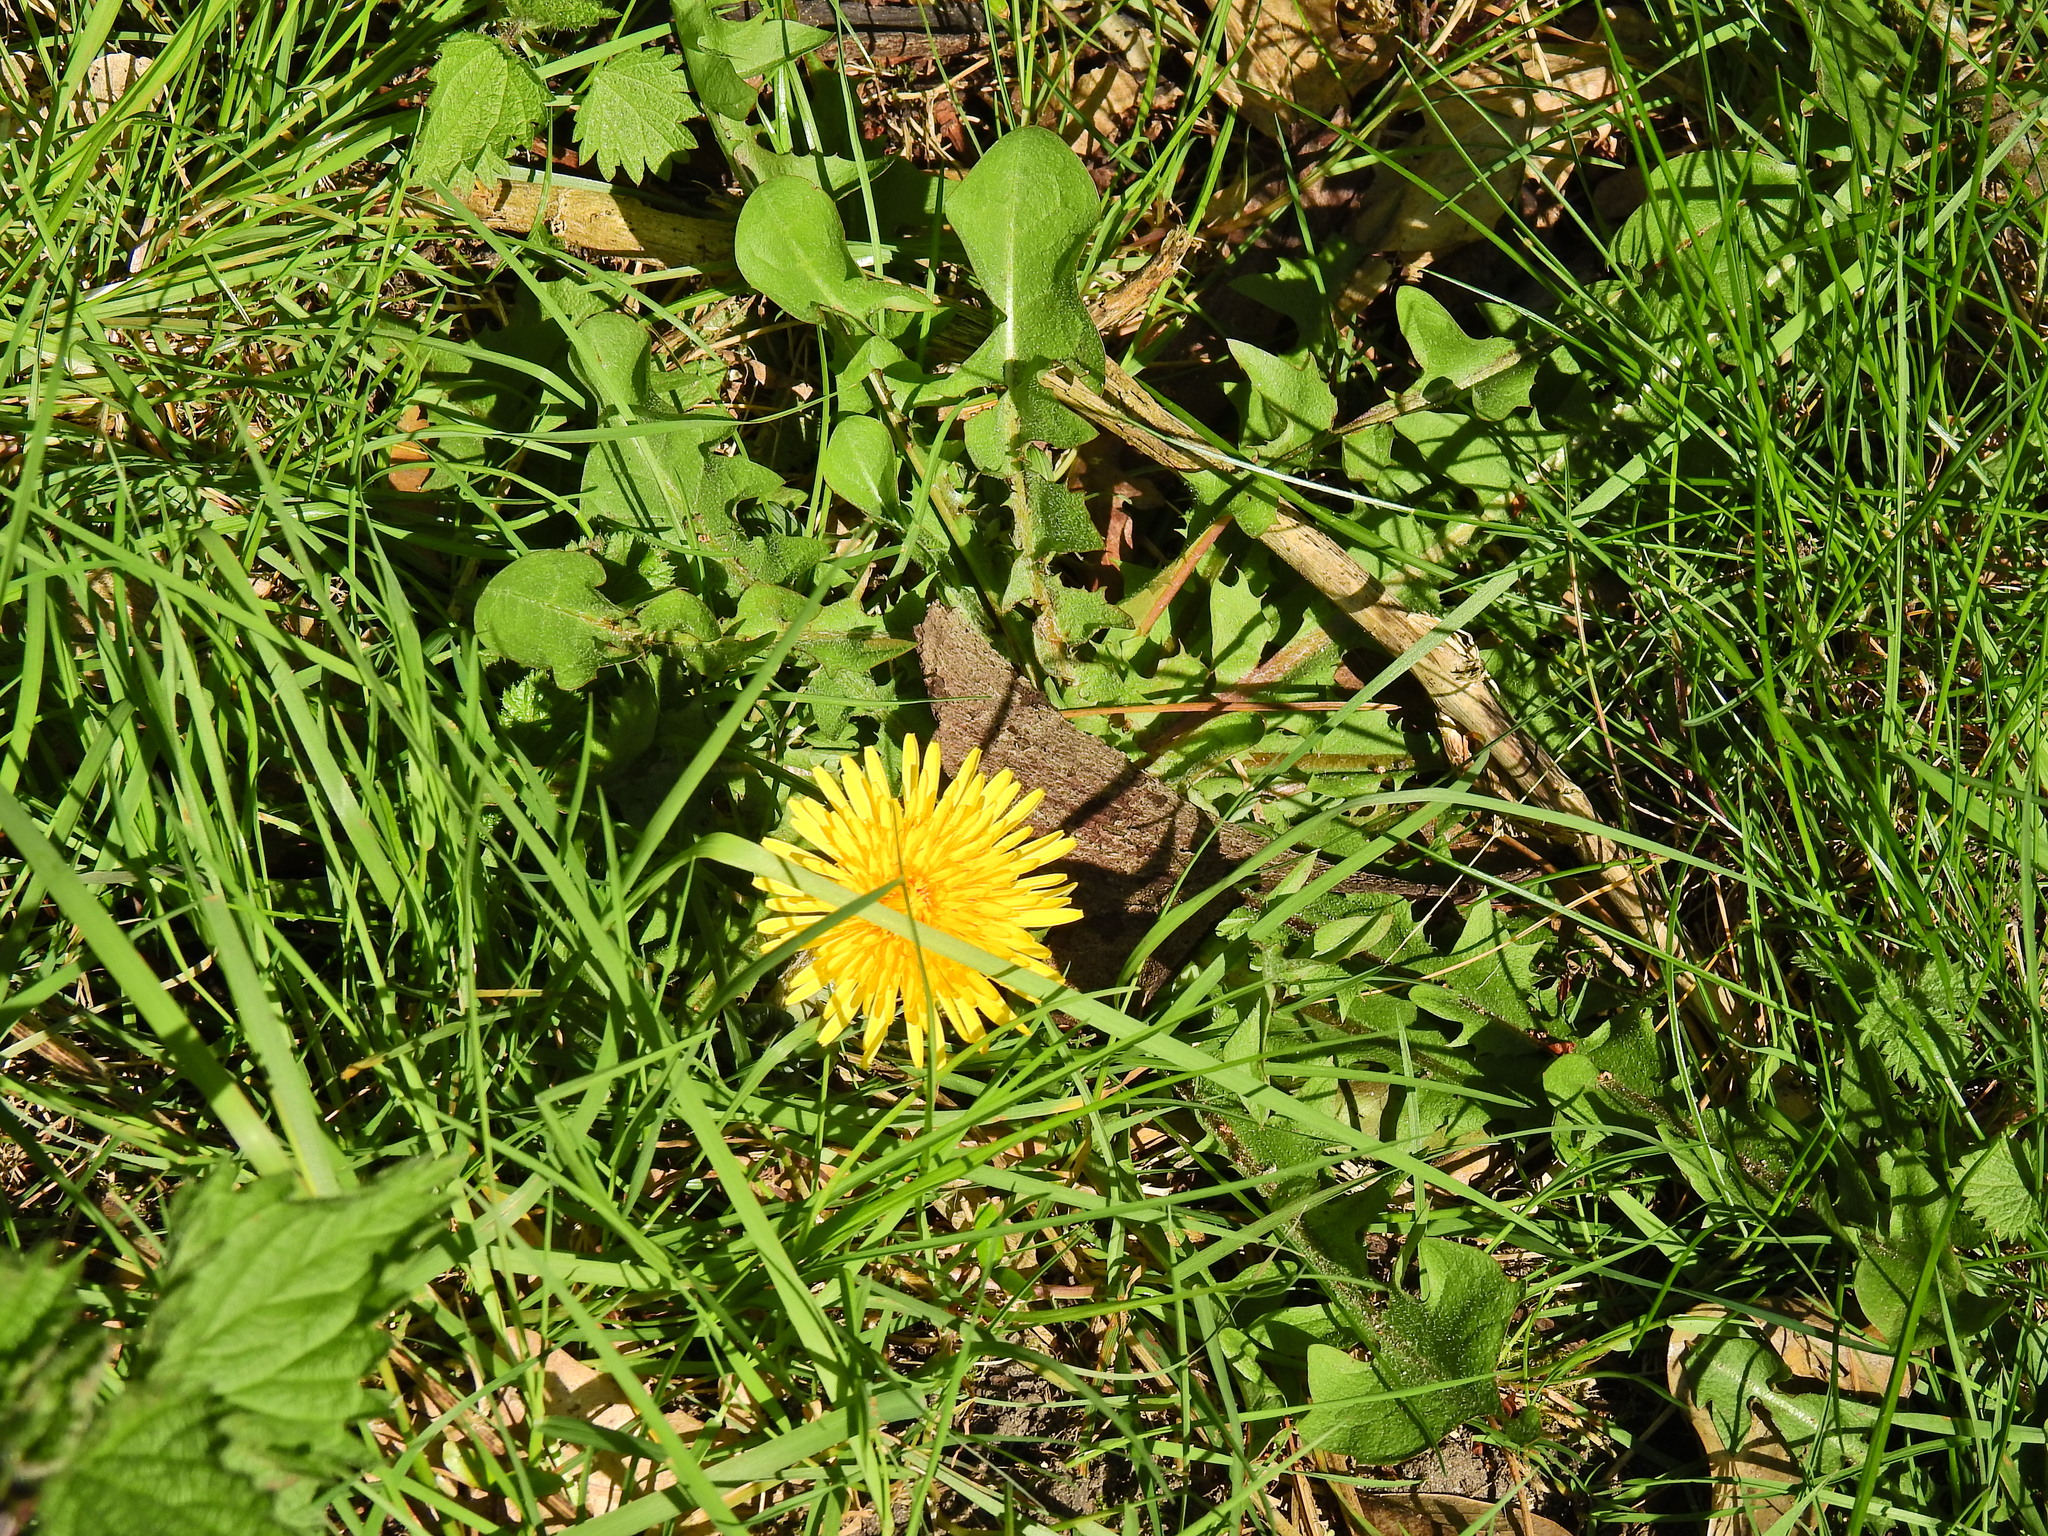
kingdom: Plantae
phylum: Tracheophyta
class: Magnoliopsida
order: Asterales
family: Asteraceae
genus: Taraxacum
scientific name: Taraxacum officinale
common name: Common dandelion
